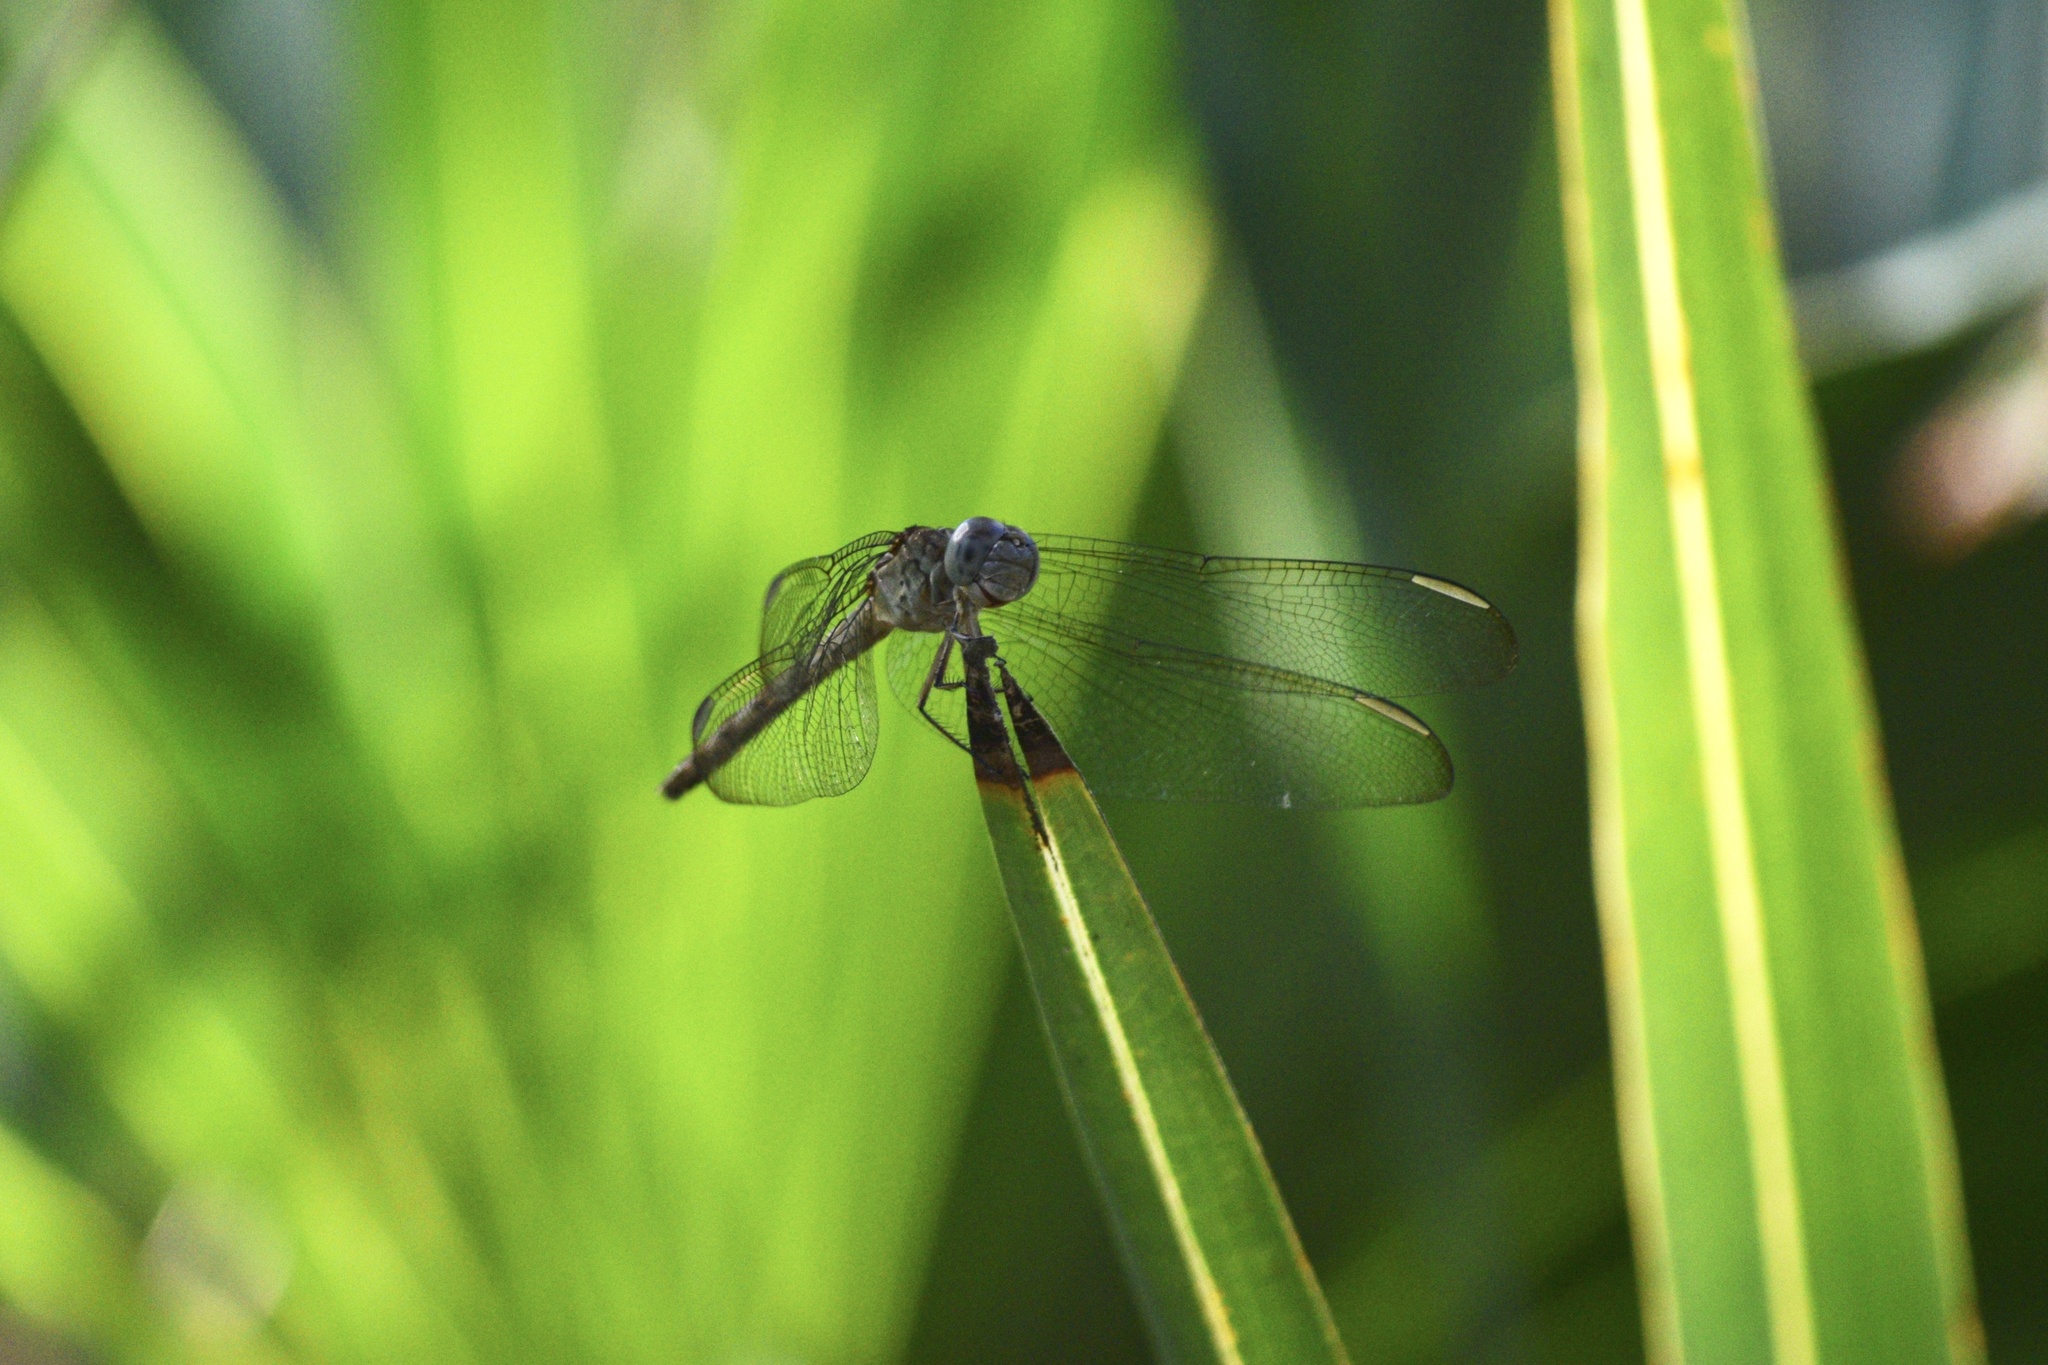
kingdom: Animalia
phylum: Arthropoda
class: Insecta
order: Odonata
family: Libellulidae
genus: Erythrodiplax
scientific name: Erythrodiplax umbrata
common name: Band-winged dragonlet
